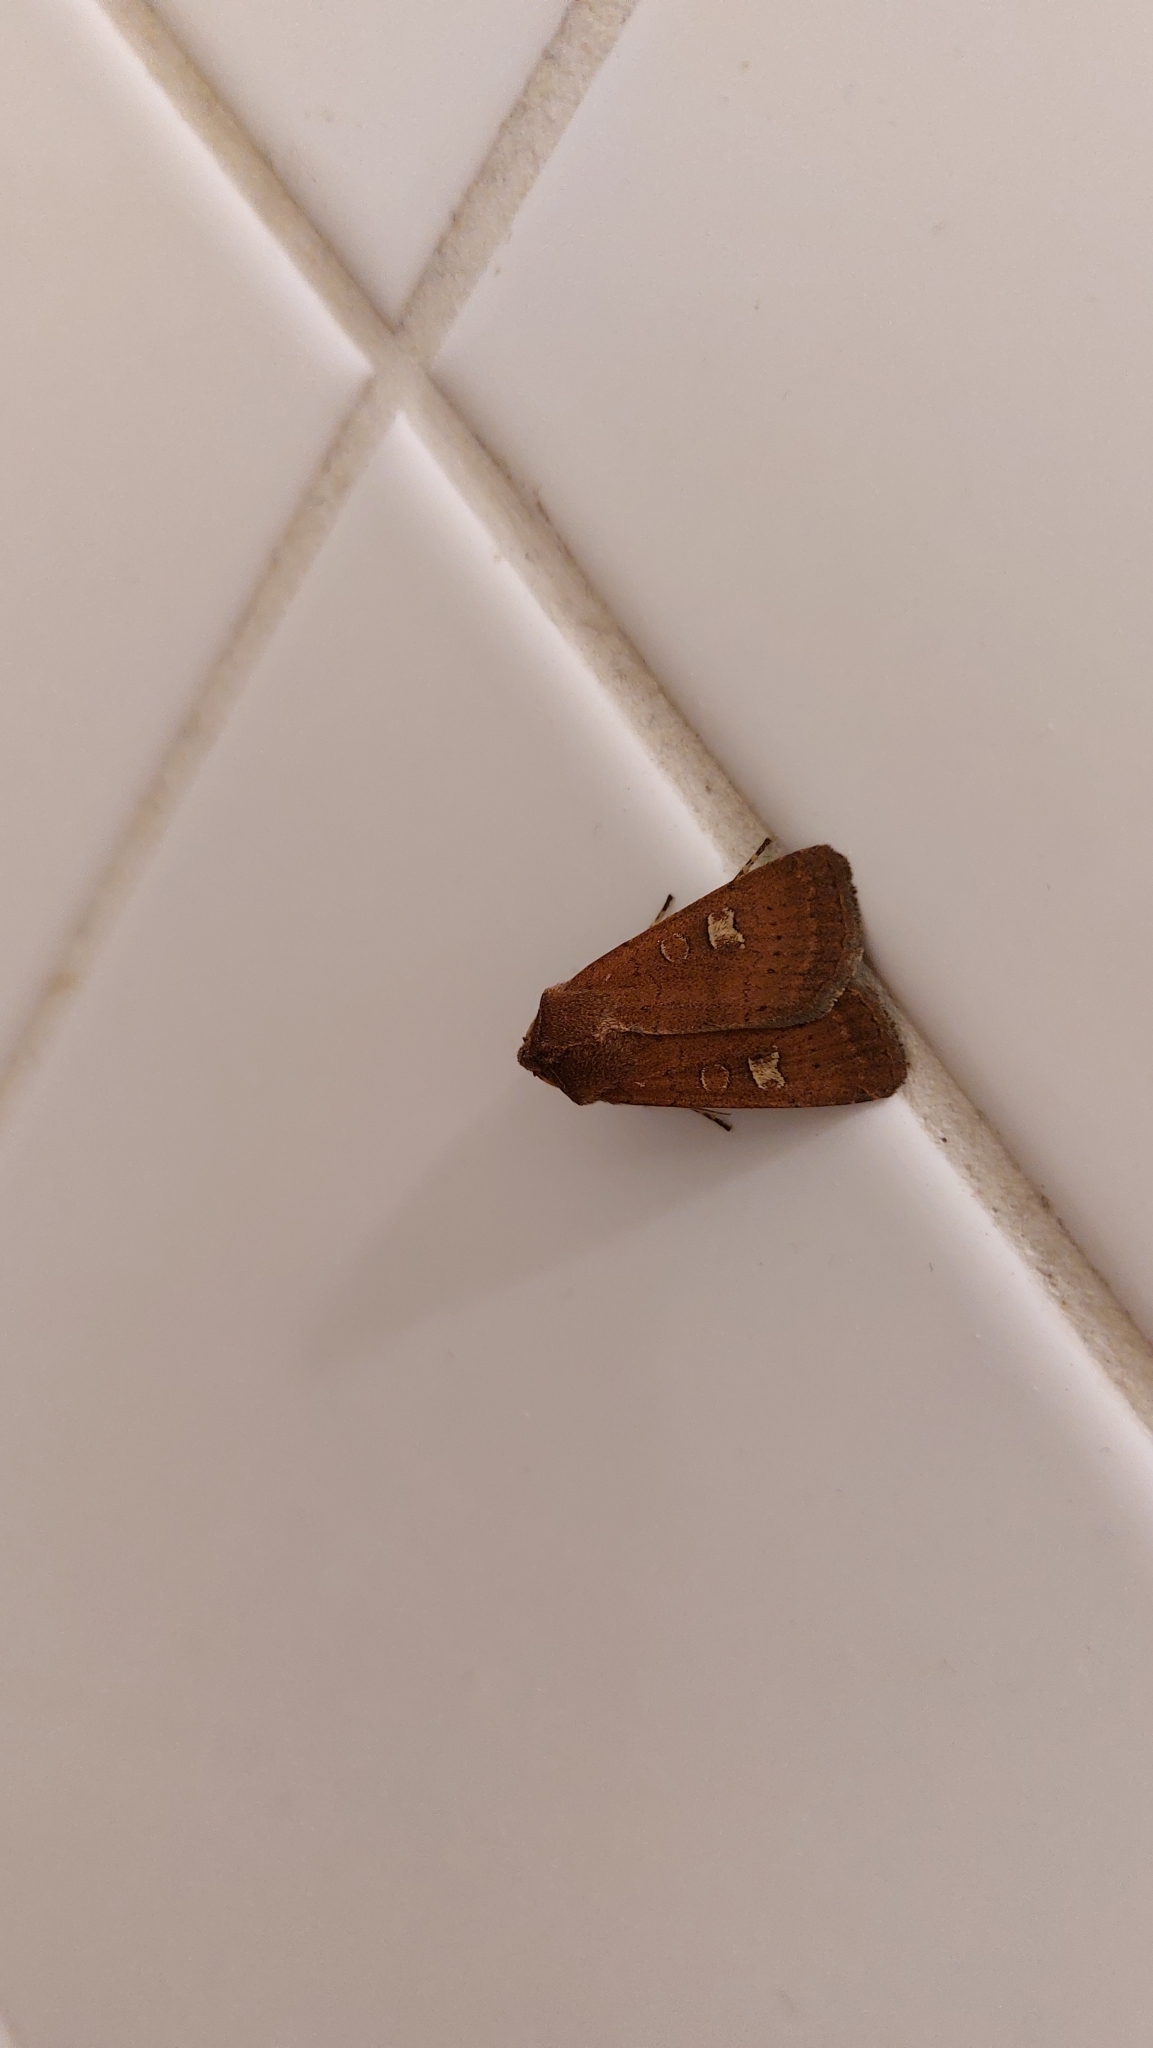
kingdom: Animalia
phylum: Arthropoda
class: Insecta
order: Lepidoptera
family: Noctuidae
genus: Xestia
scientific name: Xestia xanthographa
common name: Square-spot rustic
